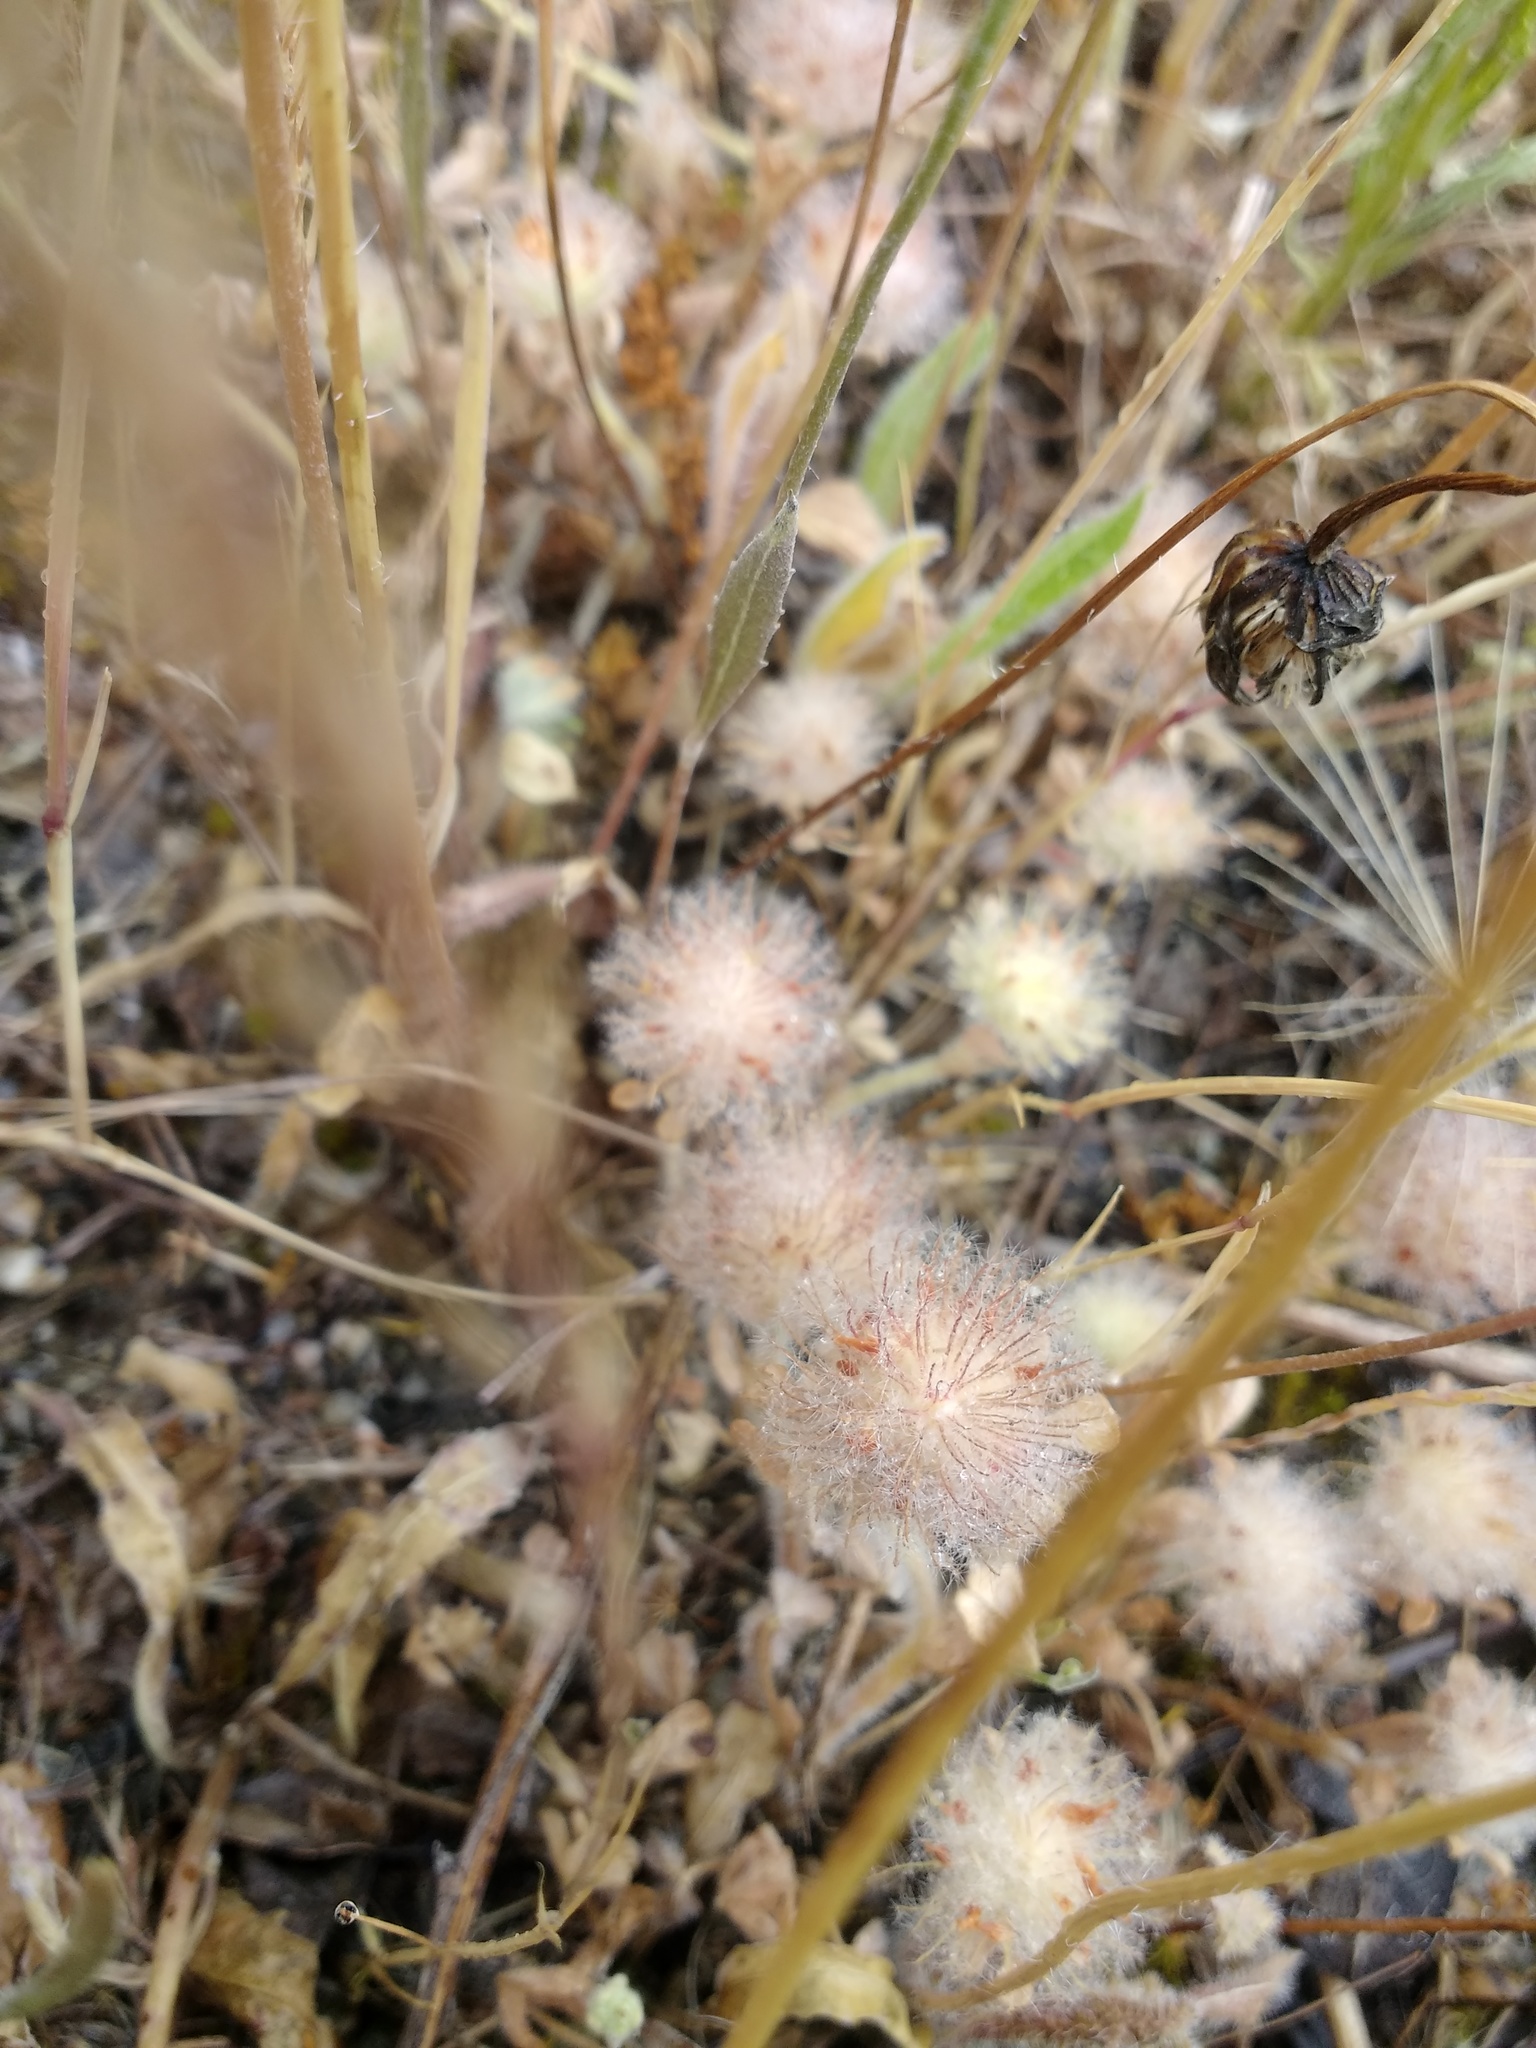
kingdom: Plantae
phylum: Tracheophyta
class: Magnoliopsida
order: Fabales
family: Fabaceae
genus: Trifolium
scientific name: Trifolium cherleri
